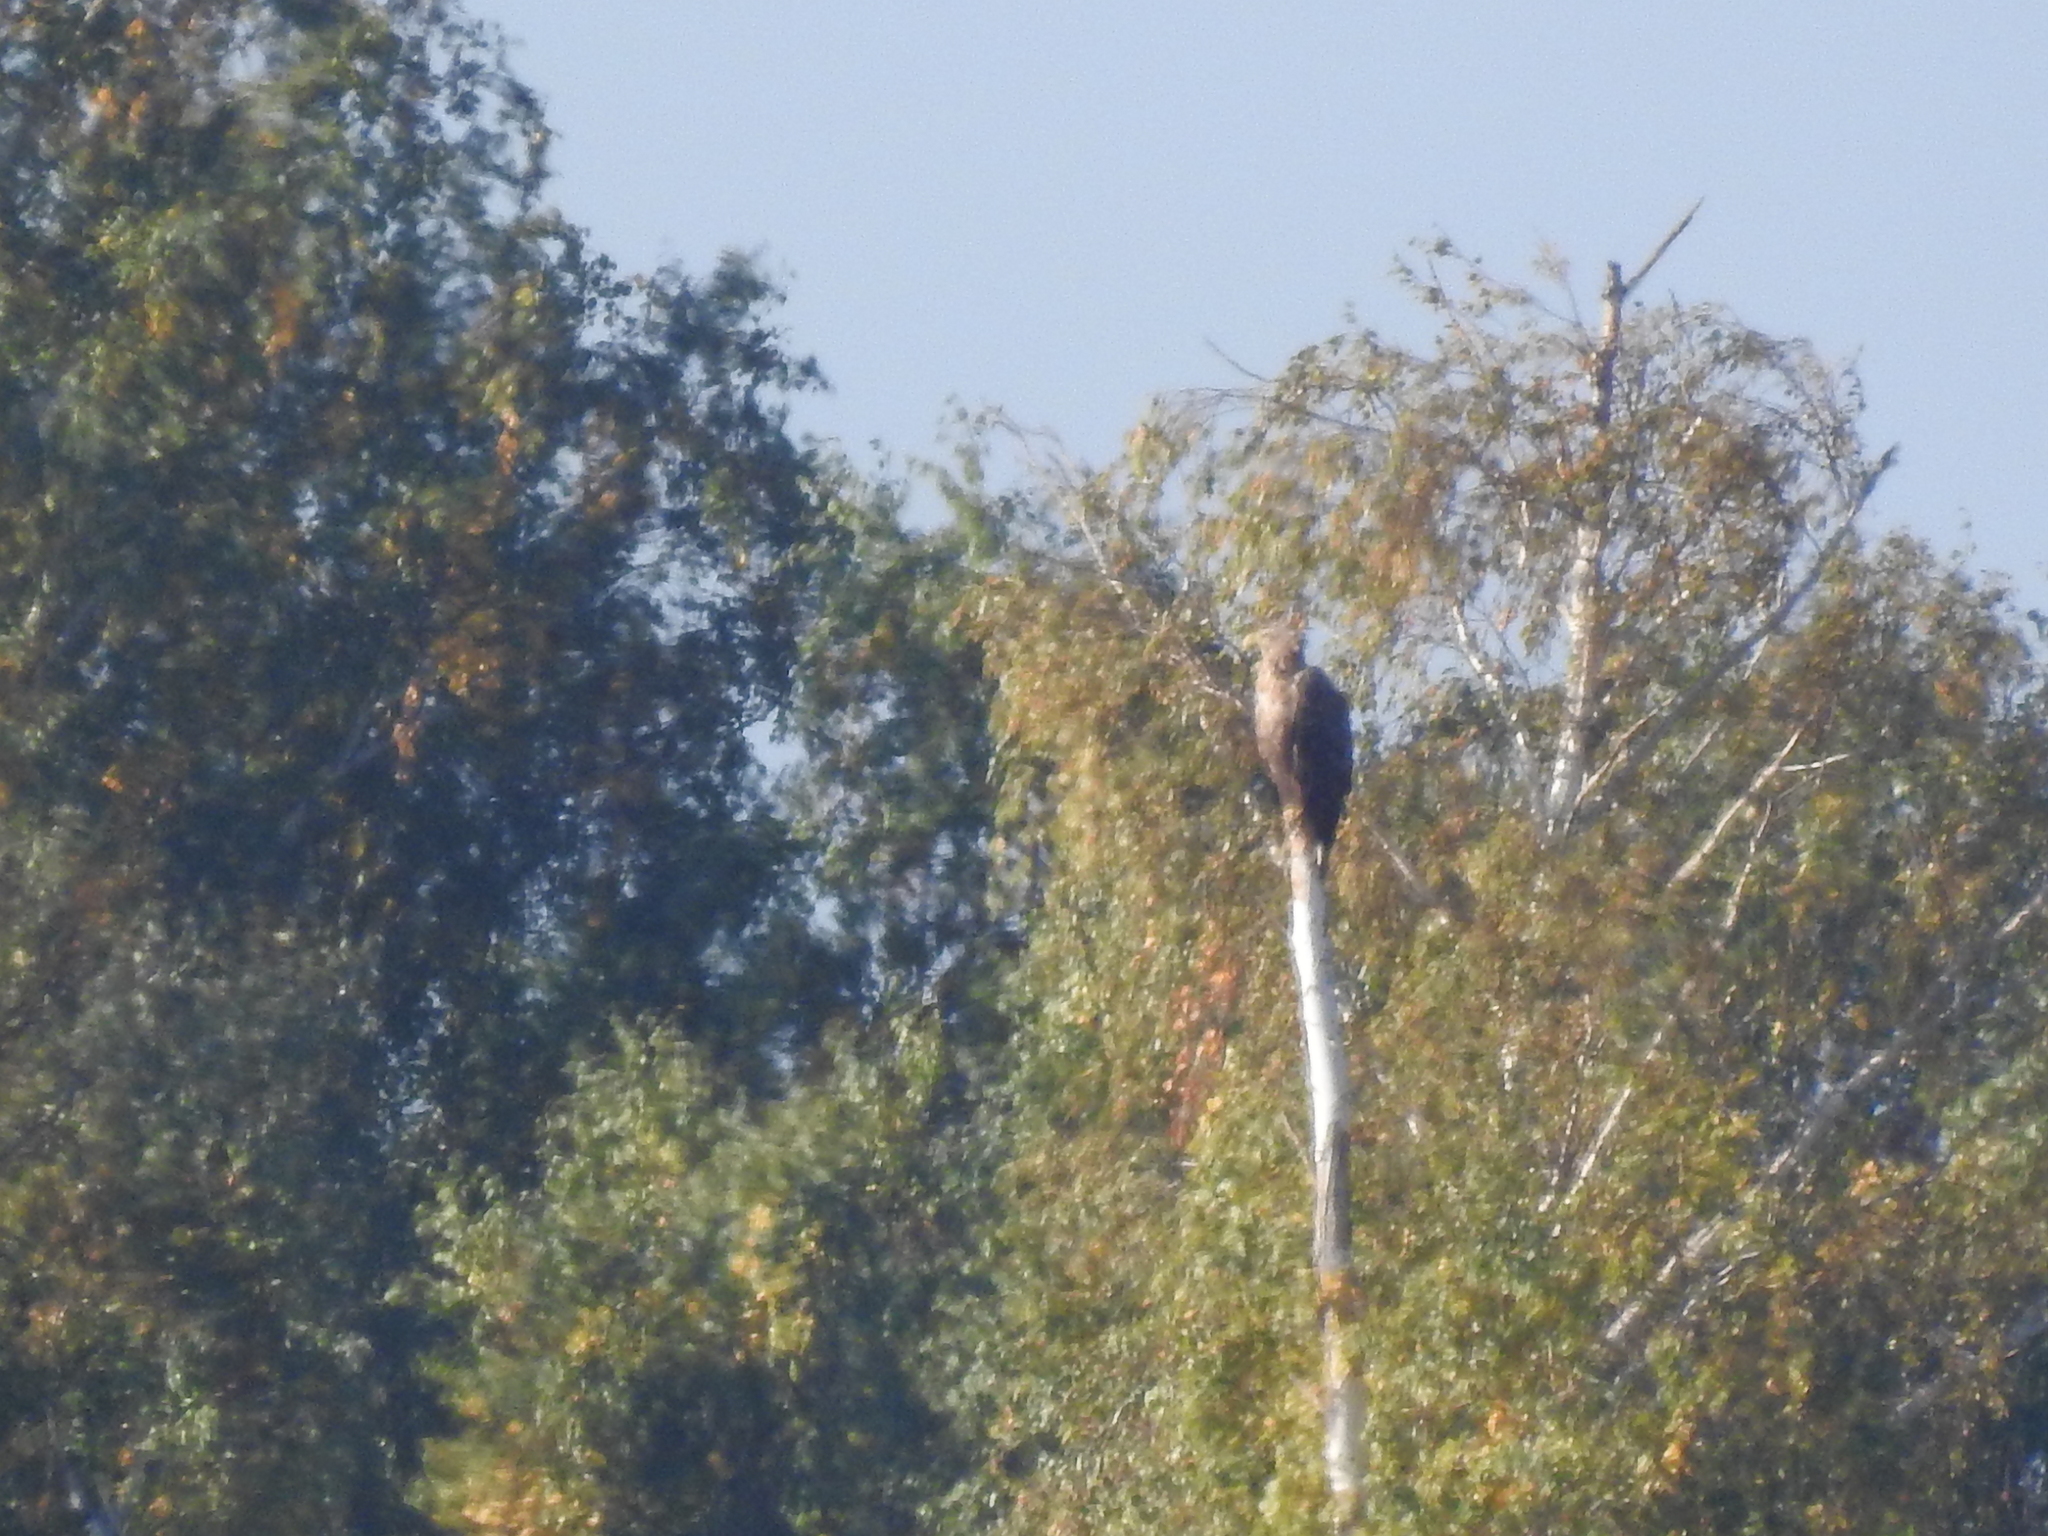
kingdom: Animalia
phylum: Chordata
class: Aves
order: Accipitriformes
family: Accipitridae
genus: Haliaeetus
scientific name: Haliaeetus albicilla
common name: White-tailed eagle
